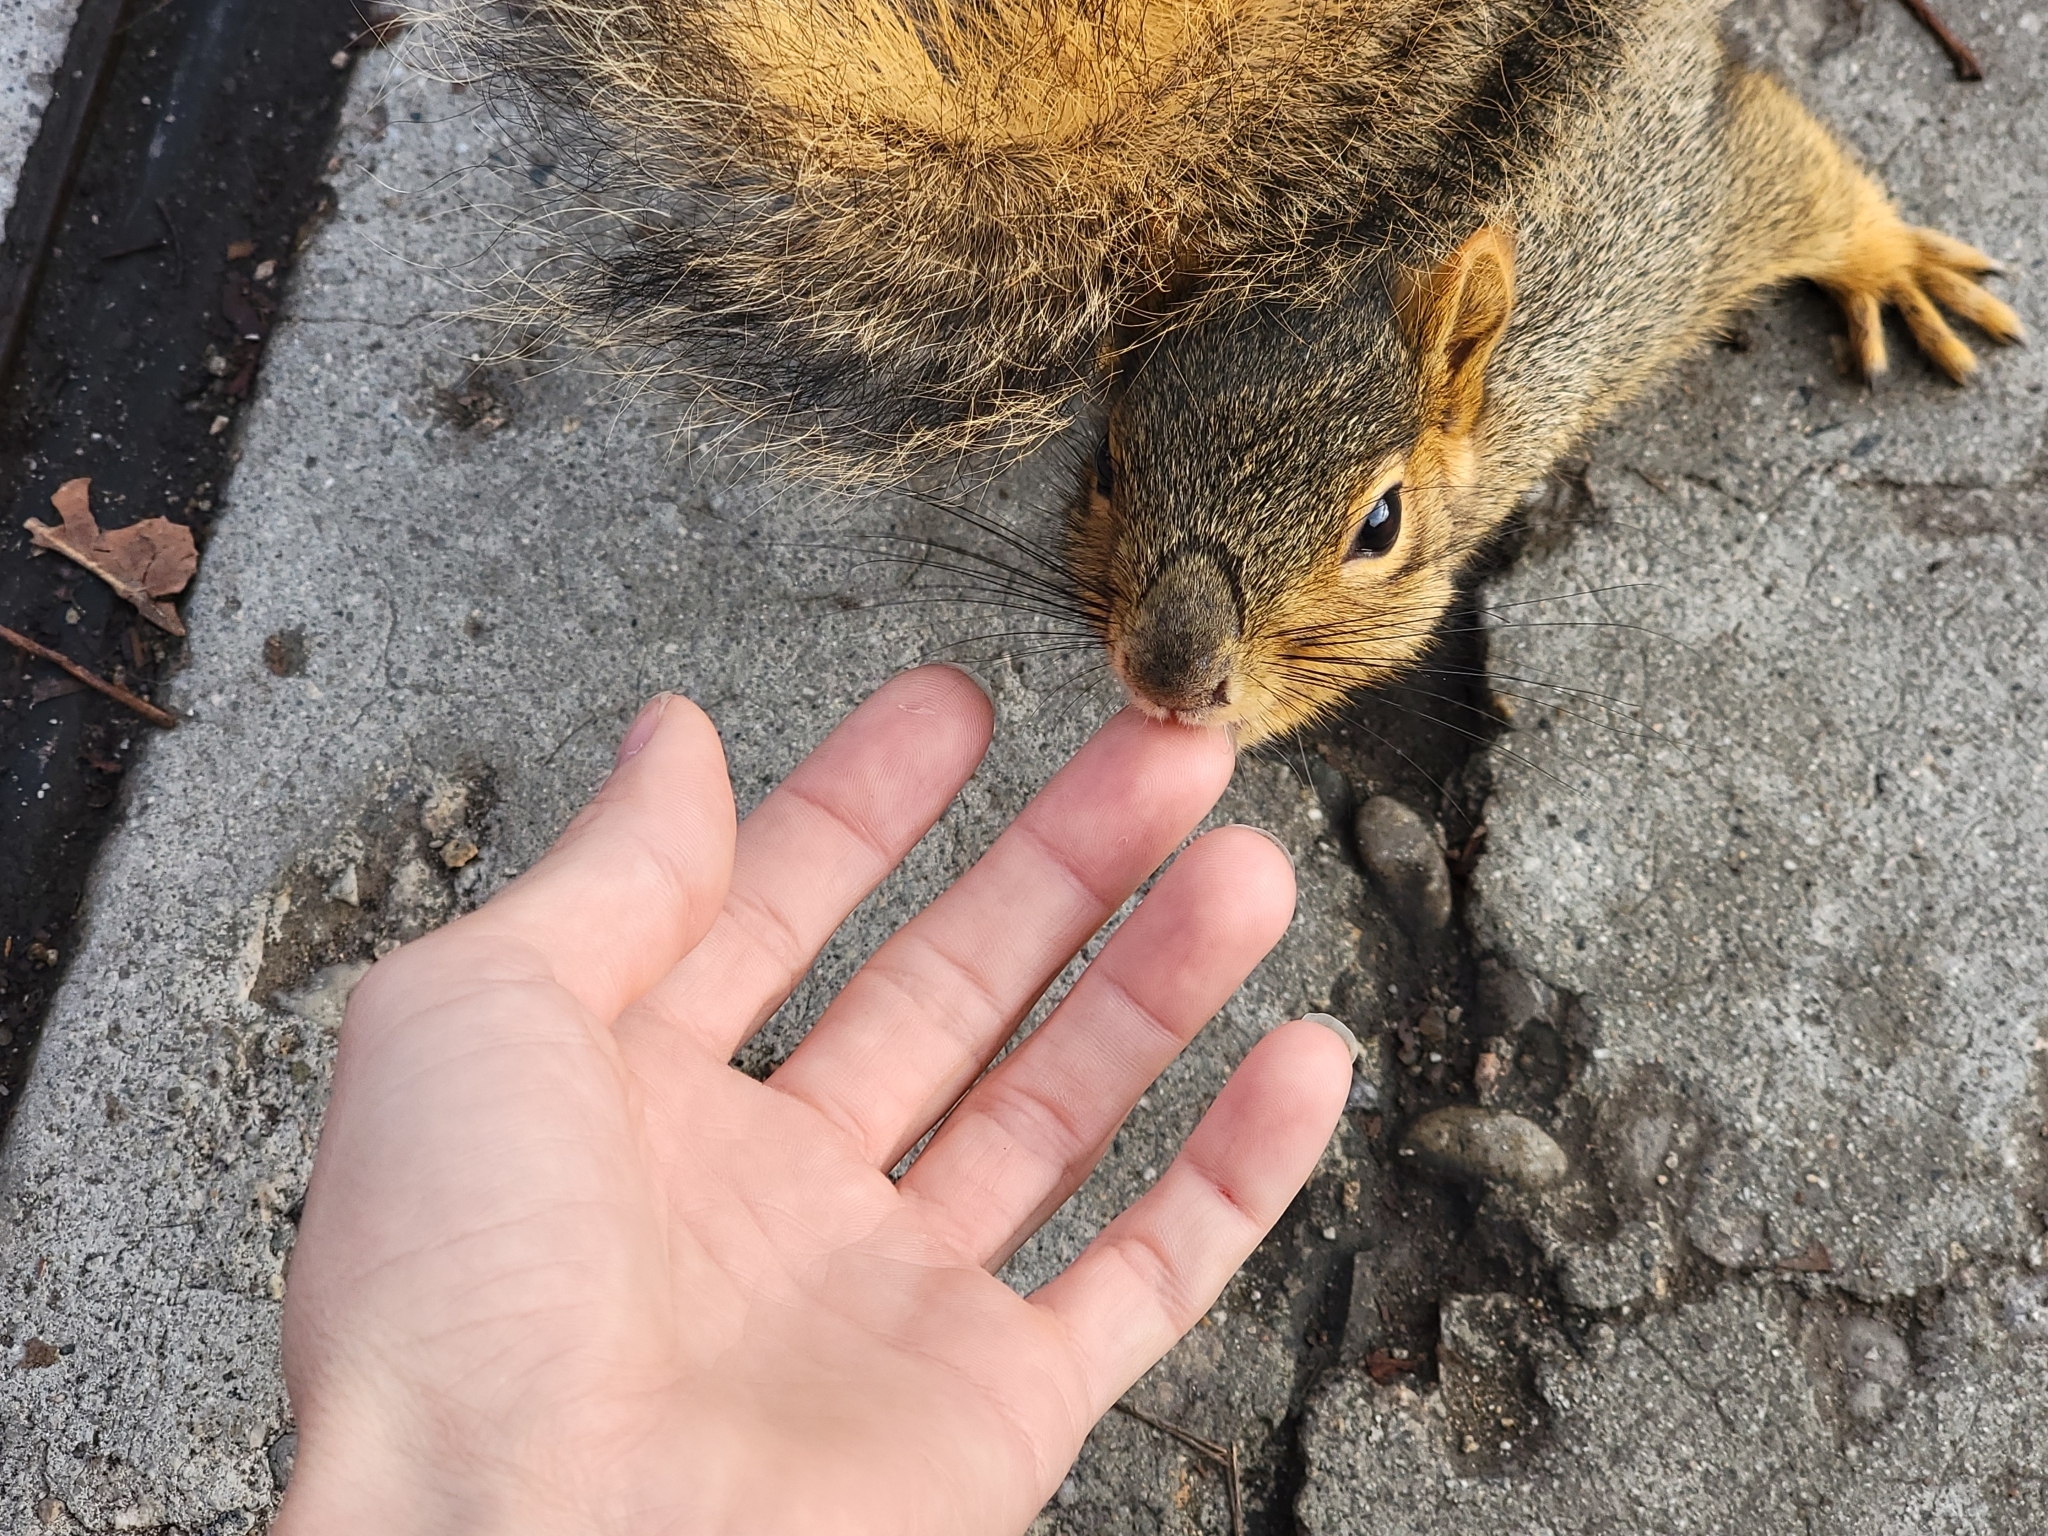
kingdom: Animalia
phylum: Chordata
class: Mammalia
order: Rodentia
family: Sciuridae
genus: Sciurus
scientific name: Sciurus niger
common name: Fox squirrel
